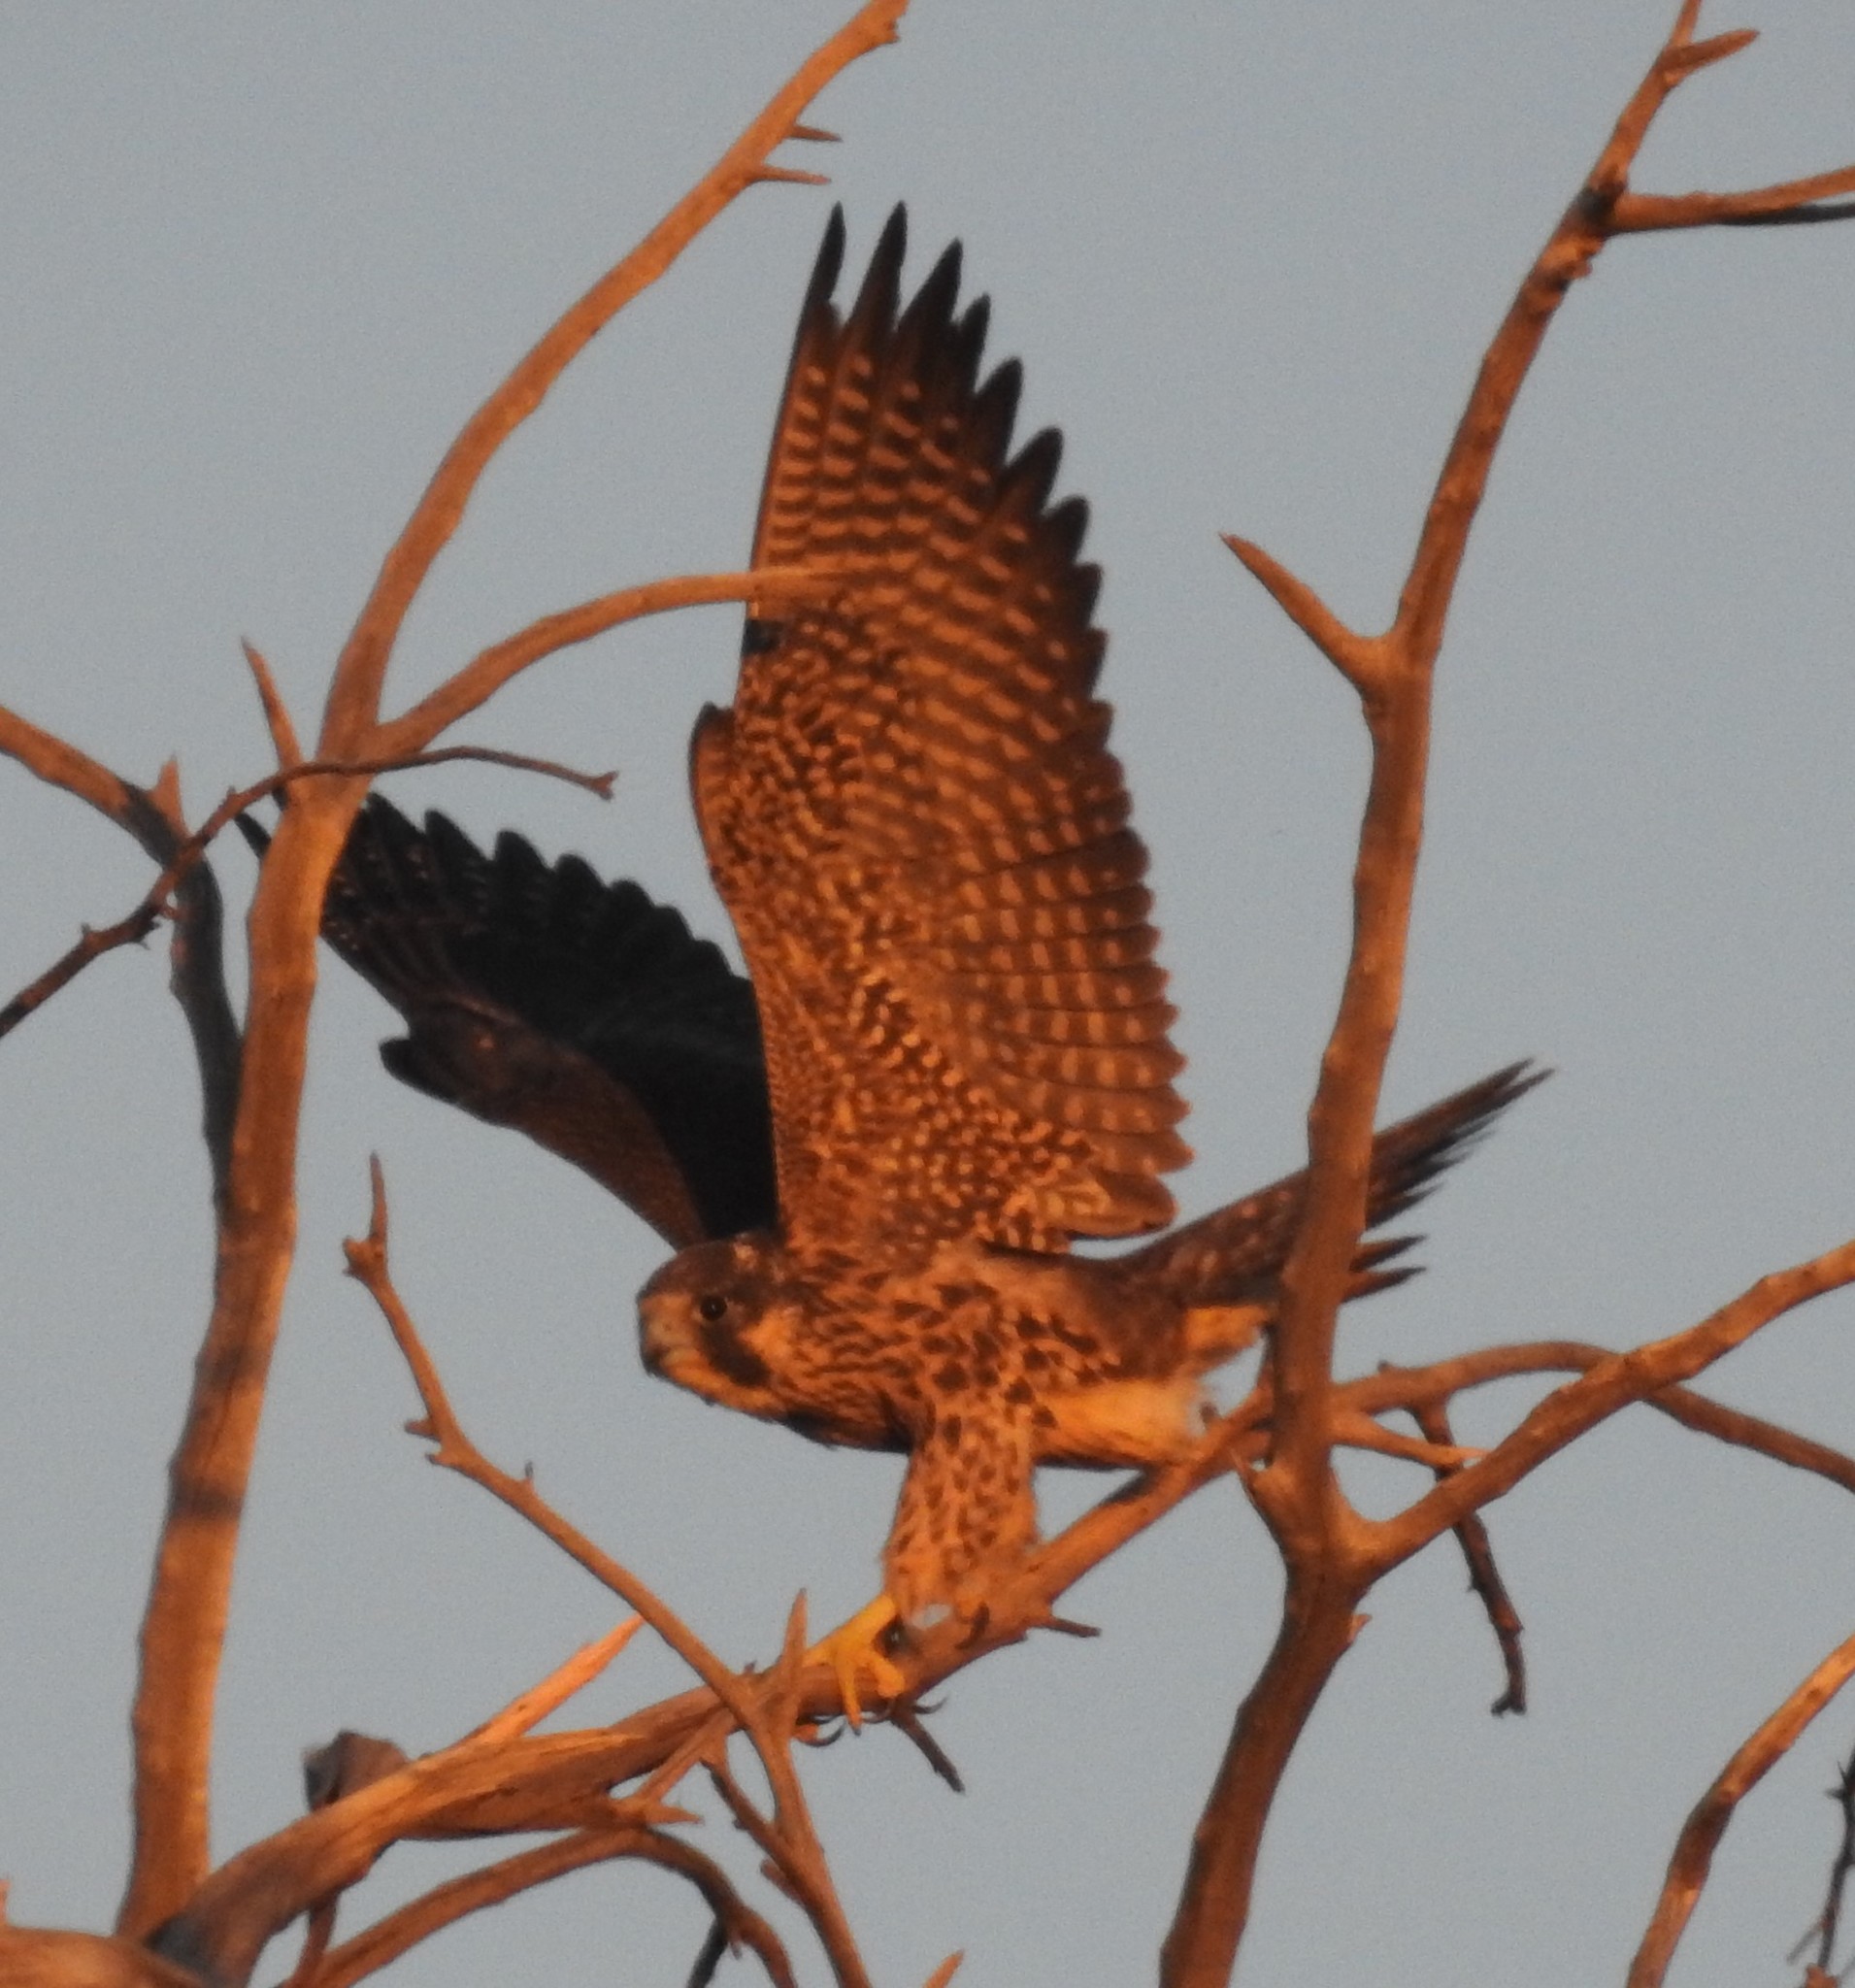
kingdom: Animalia
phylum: Chordata
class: Aves
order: Falconiformes
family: Falconidae
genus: Falco
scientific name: Falco peregrinus
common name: Peregrine falcon
